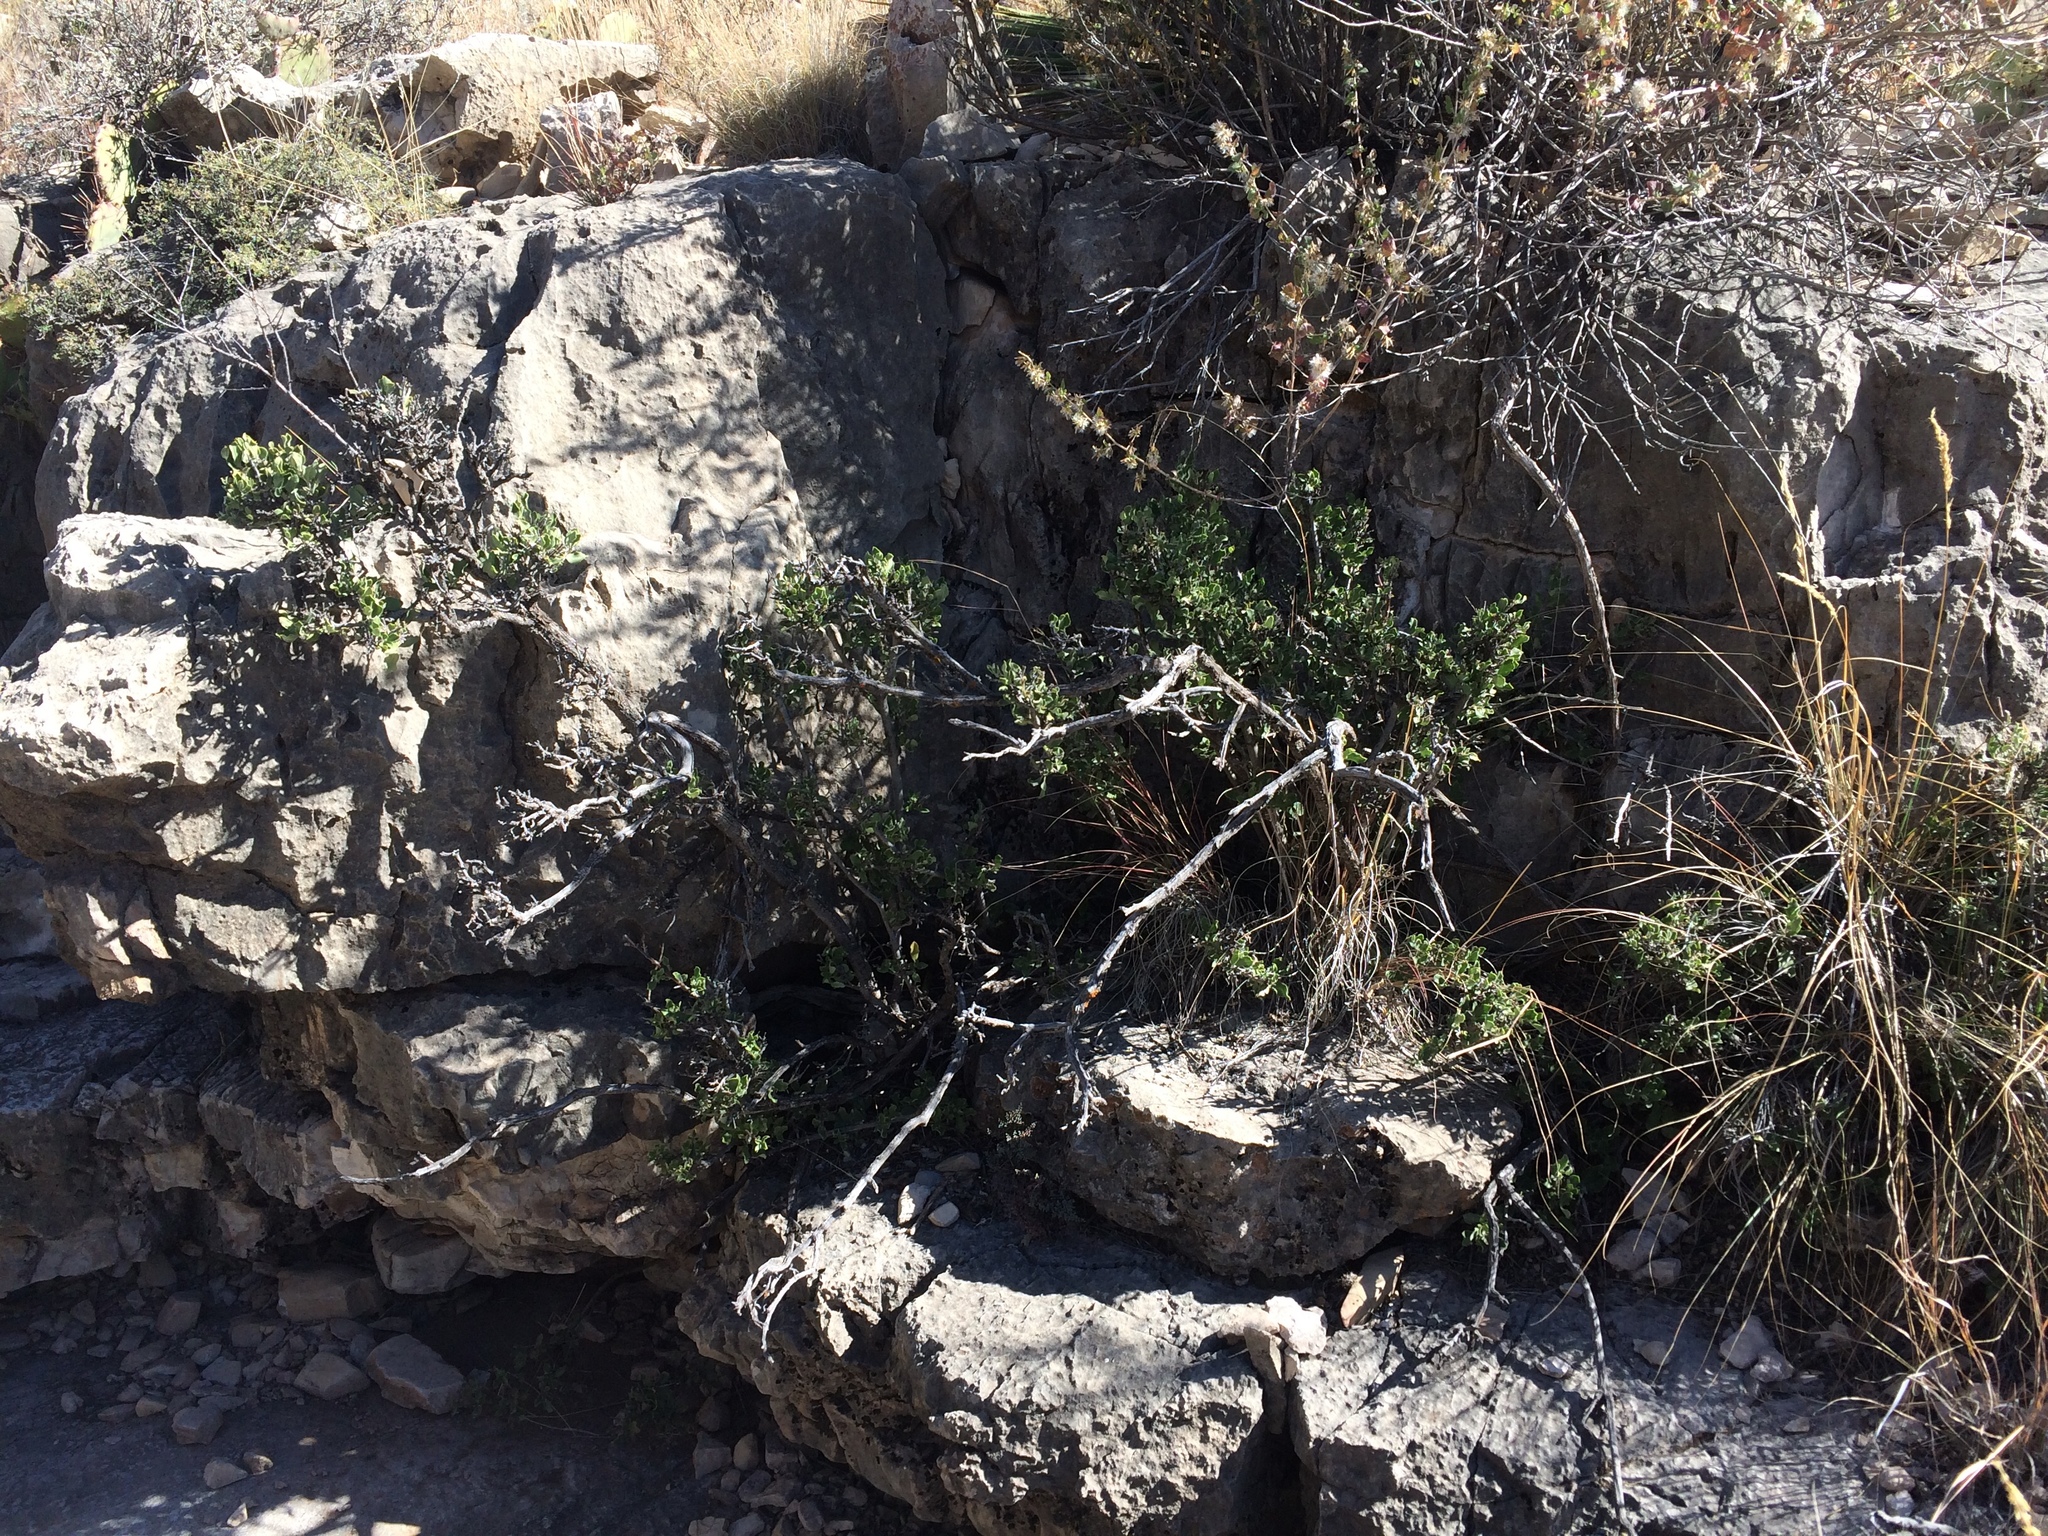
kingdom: Plantae
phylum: Tracheophyta
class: Magnoliopsida
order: Garryales
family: Garryaceae
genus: Garrya
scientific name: Garrya goldmanii
